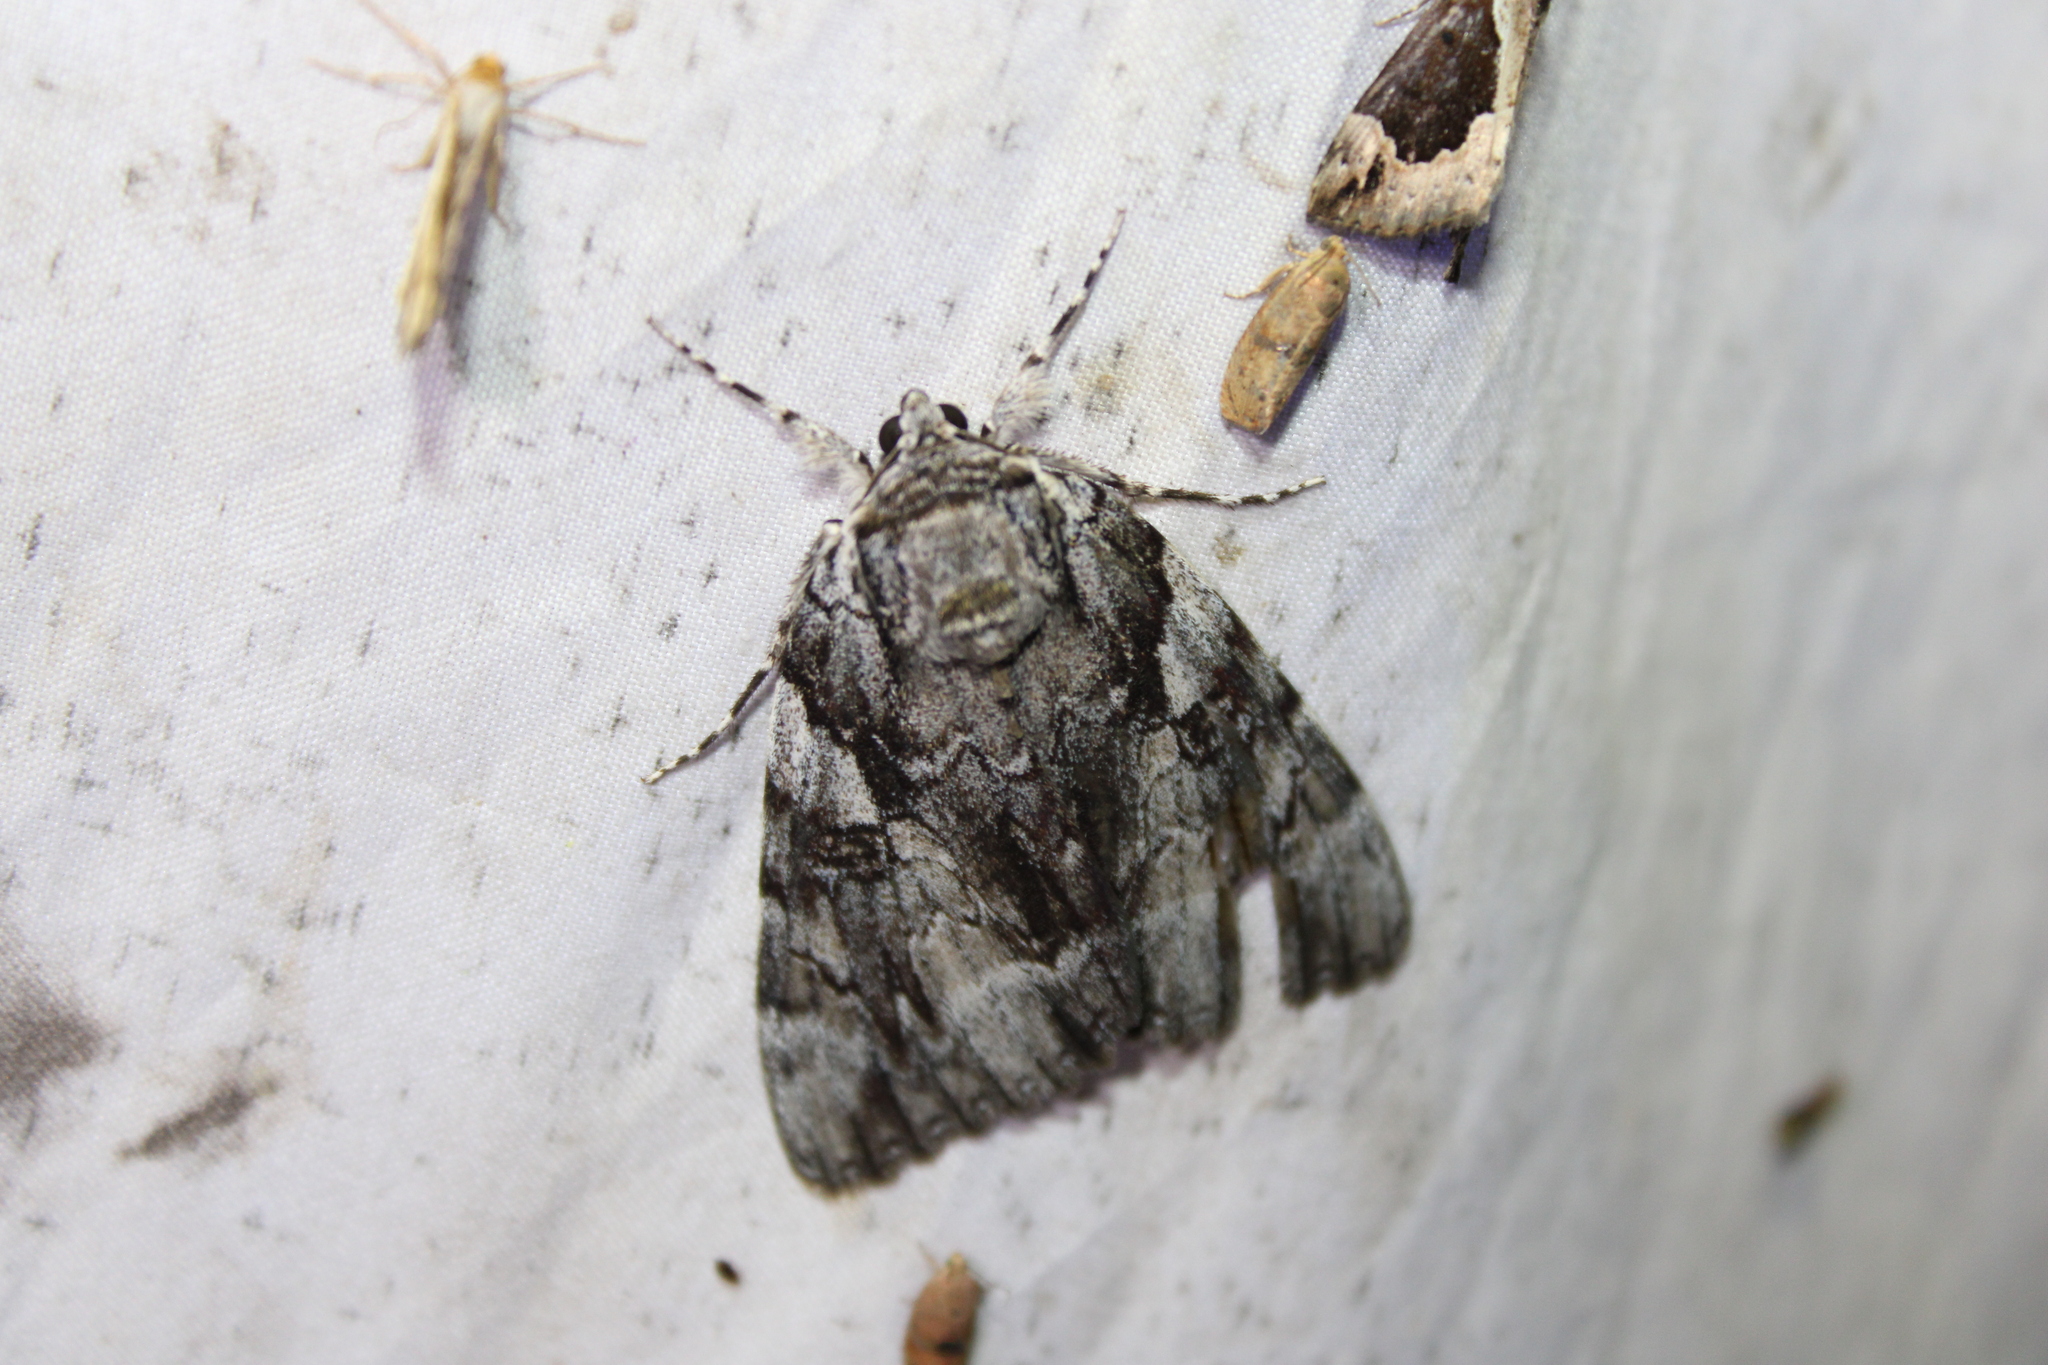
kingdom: Animalia
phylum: Arthropoda
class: Insecta
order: Lepidoptera
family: Erebidae
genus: Catocala
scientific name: Catocala vidua
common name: The widow
